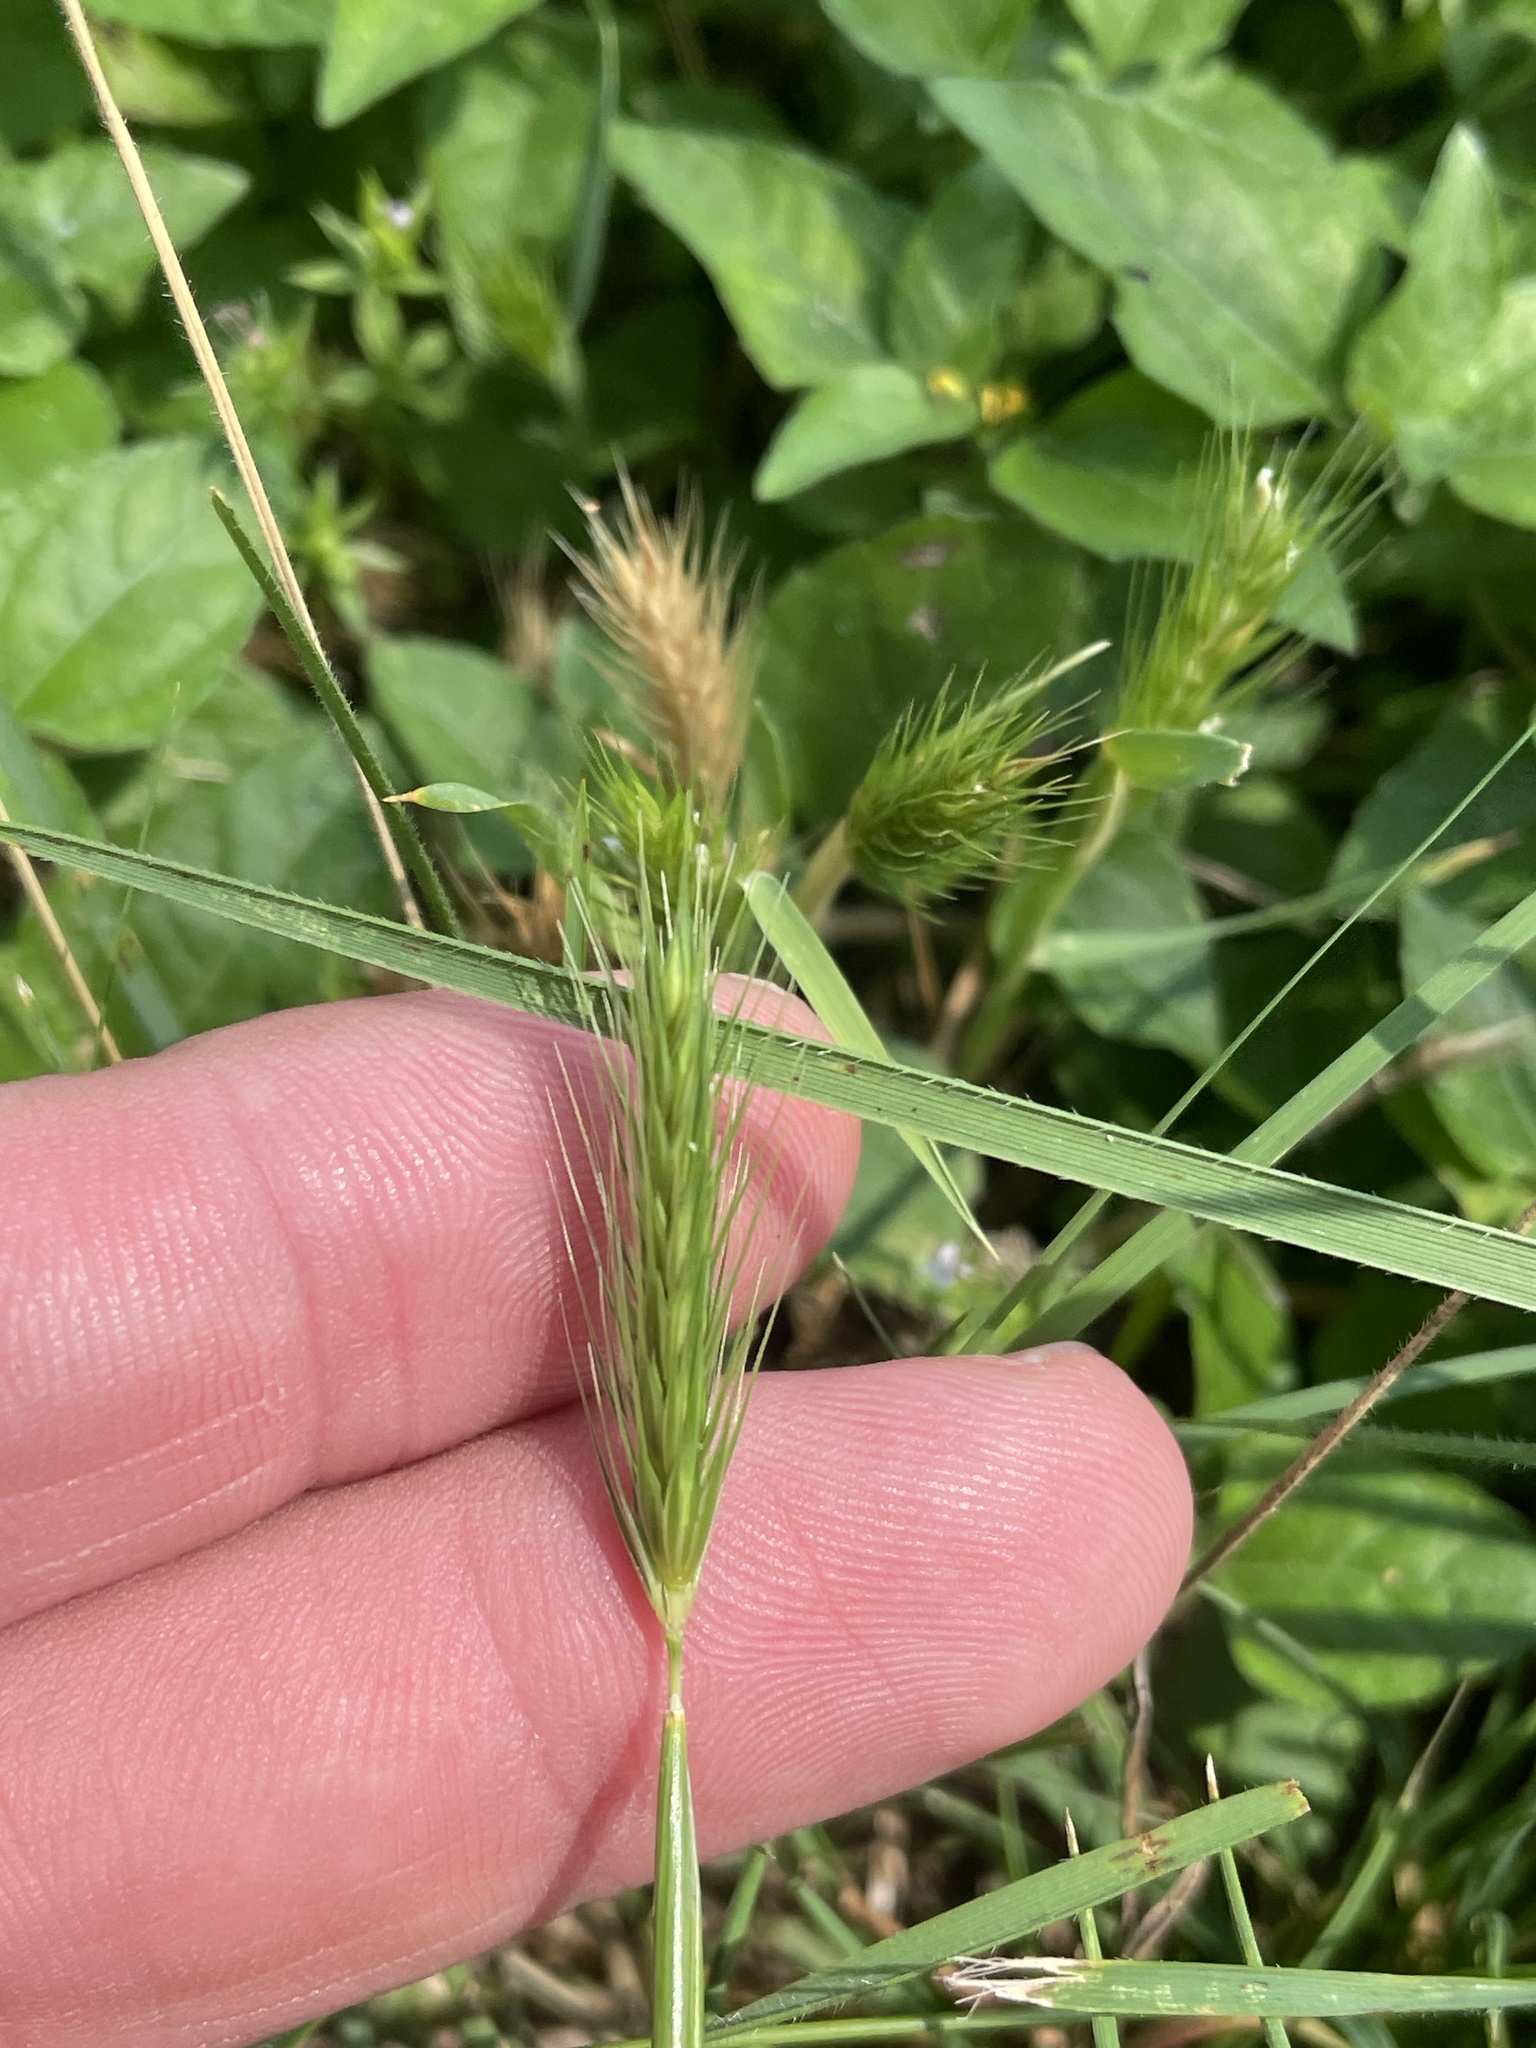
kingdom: Plantae
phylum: Tracheophyta
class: Liliopsida
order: Poales
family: Poaceae
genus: Hordeum
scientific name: Hordeum pusillum
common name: Little barley
